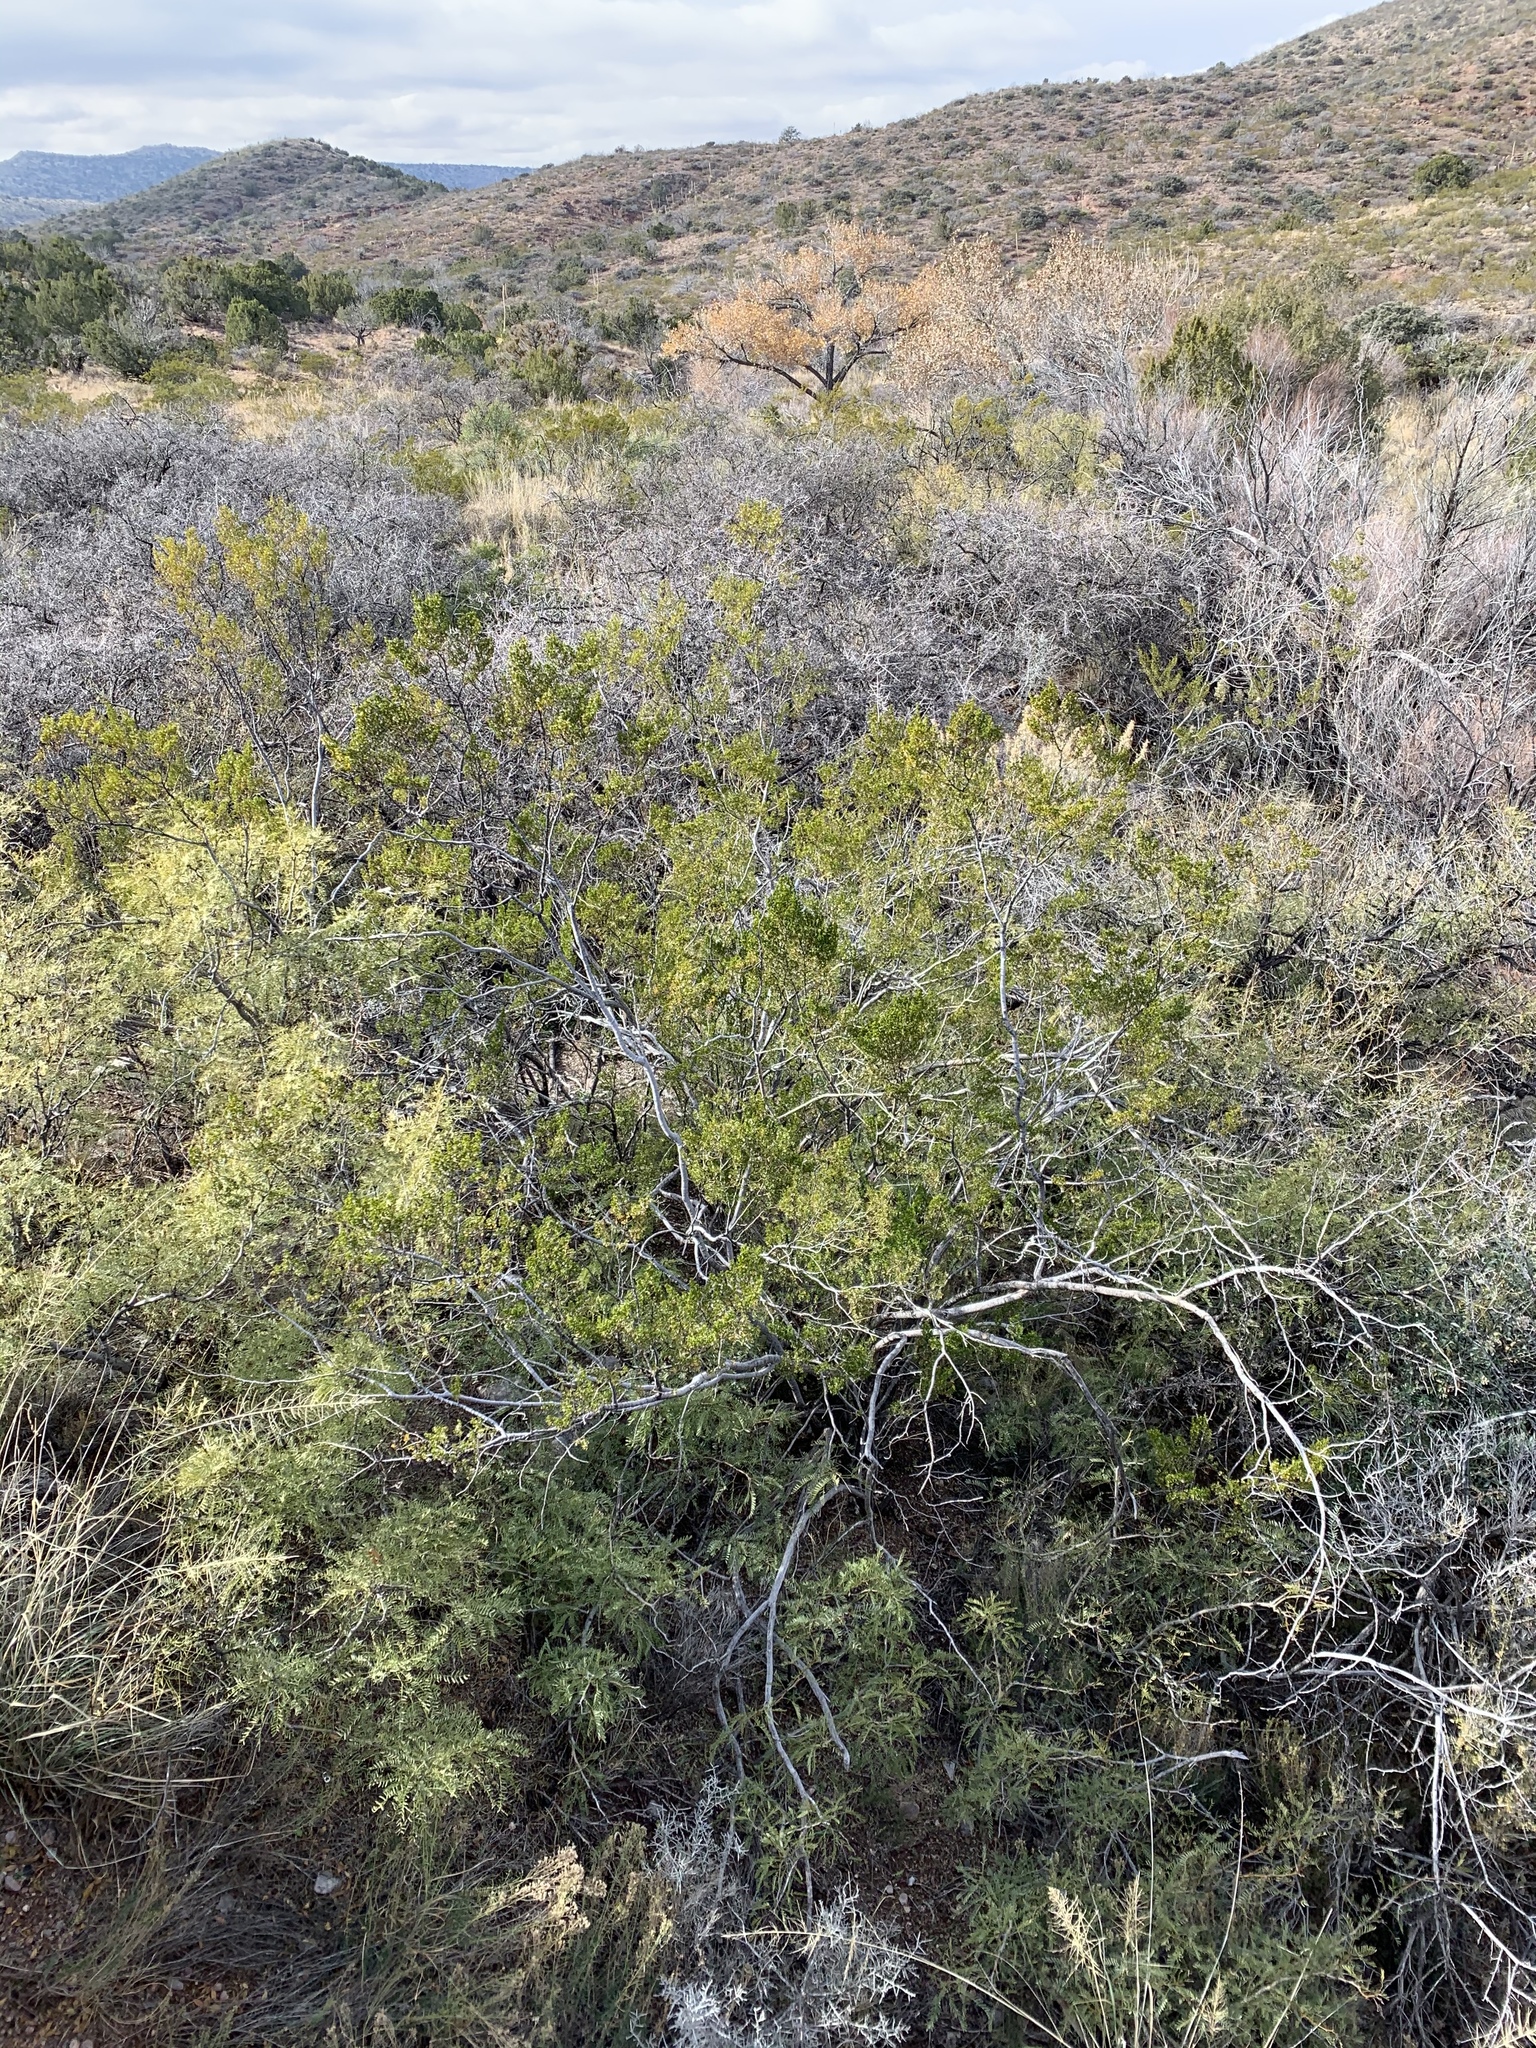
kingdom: Plantae
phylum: Tracheophyta
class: Magnoliopsida
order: Zygophyllales
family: Zygophyllaceae
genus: Larrea
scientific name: Larrea tridentata
